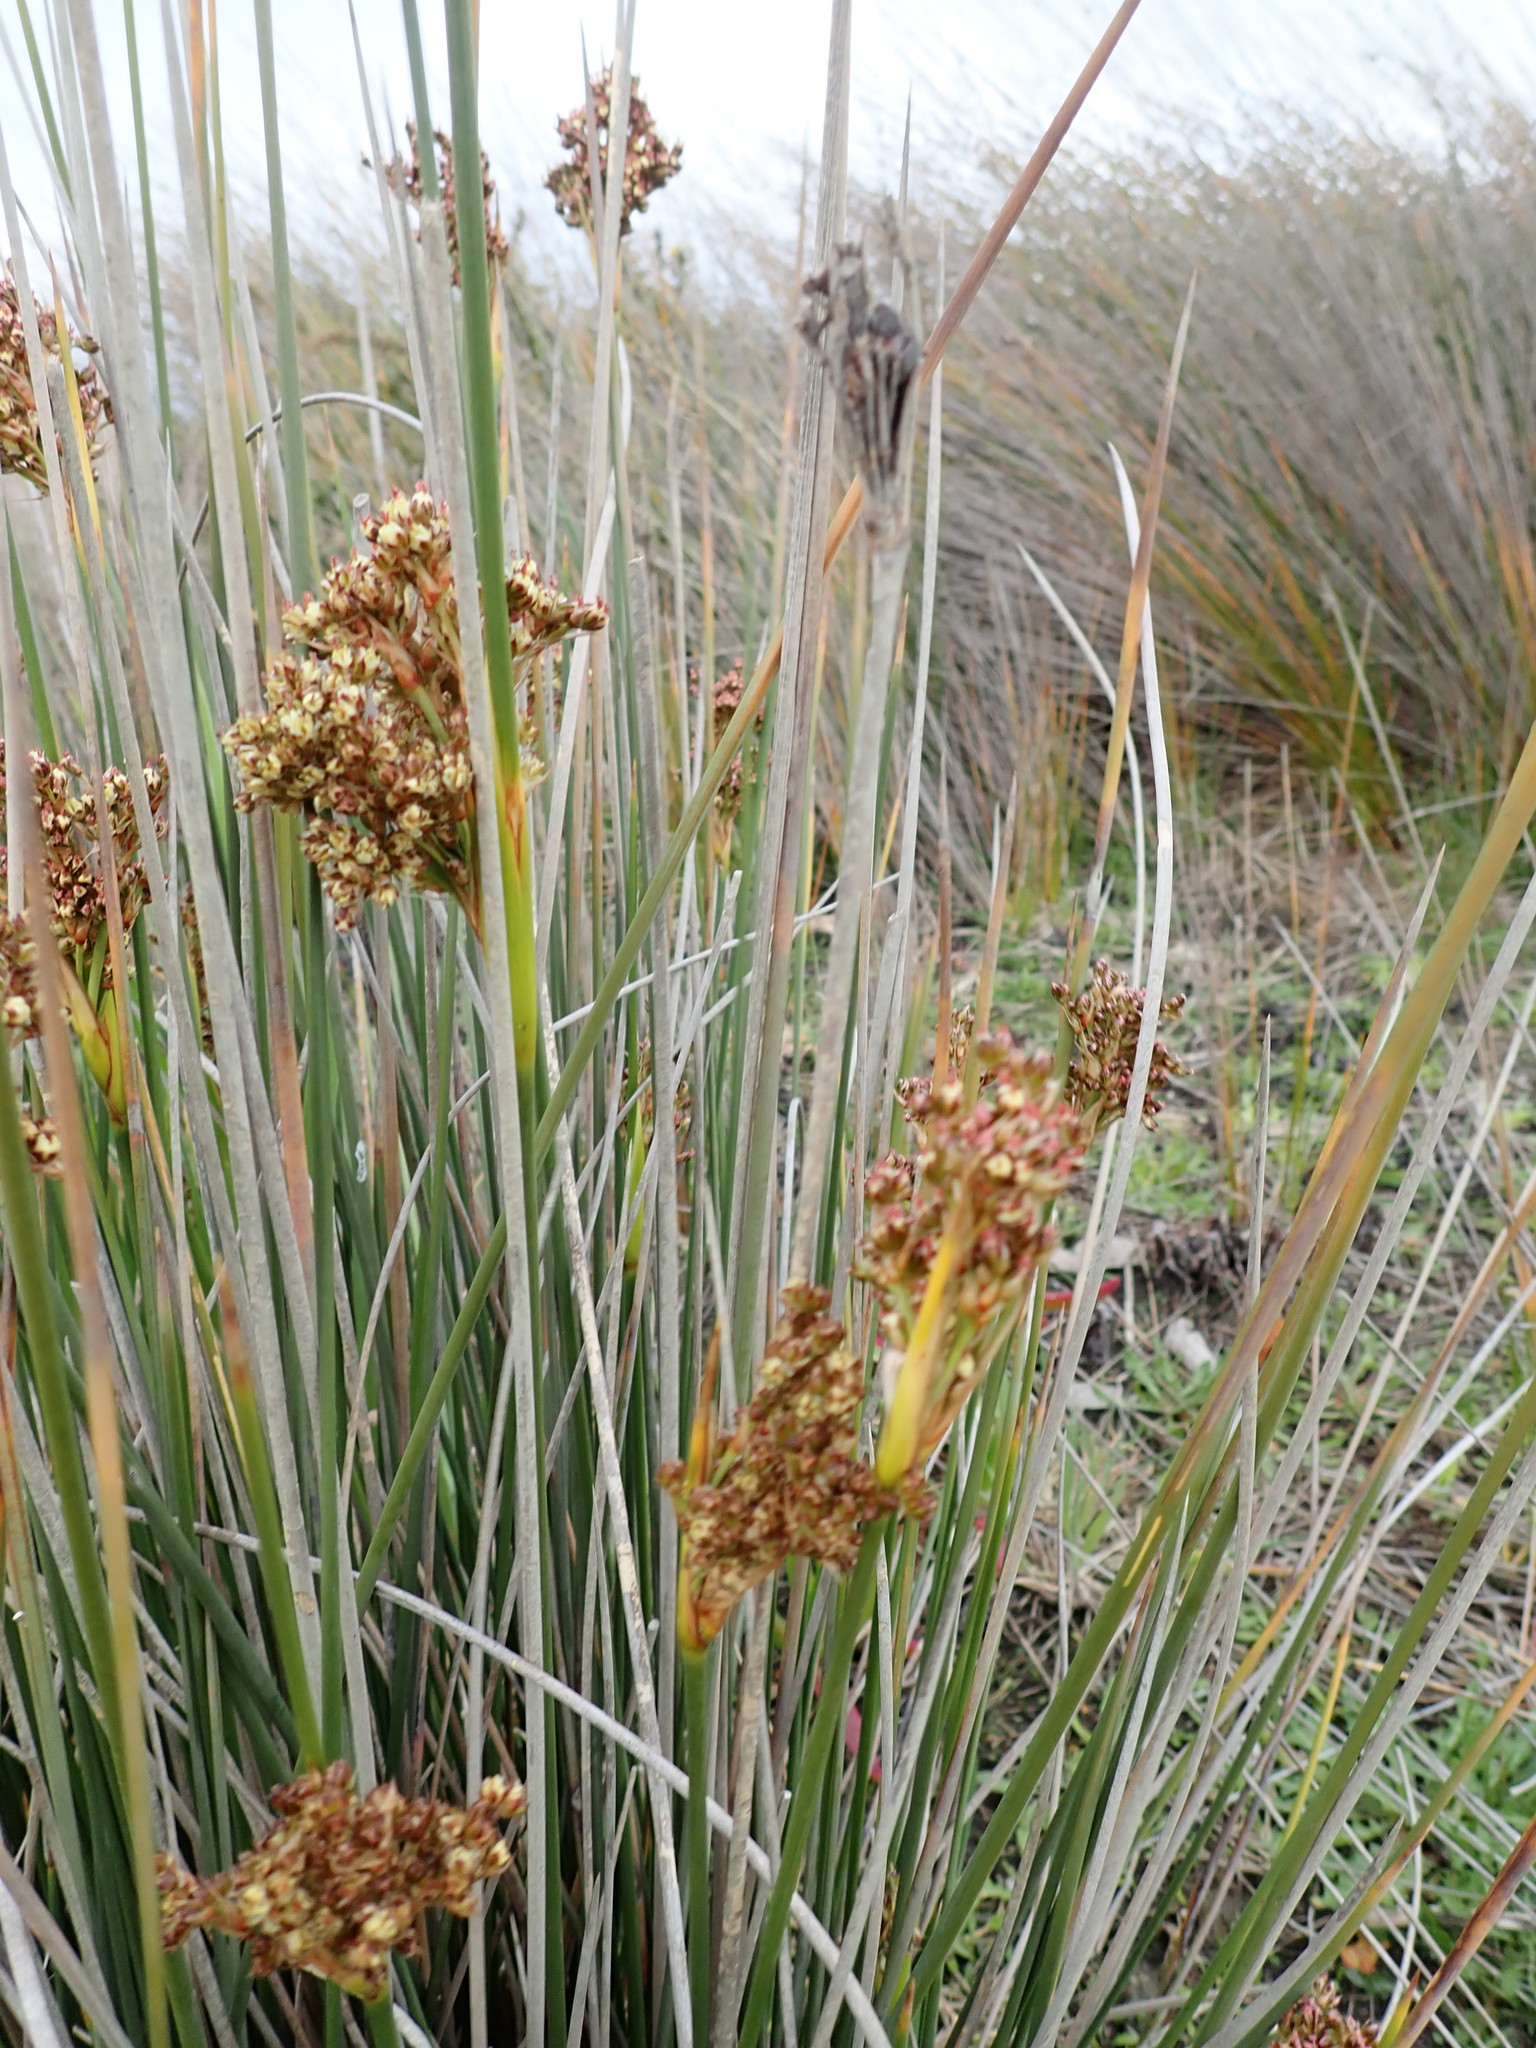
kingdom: Plantae
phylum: Tracheophyta
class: Liliopsida
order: Poales
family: Juncaceae
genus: Juncus
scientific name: Juncus acutus
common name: Sharp rush
